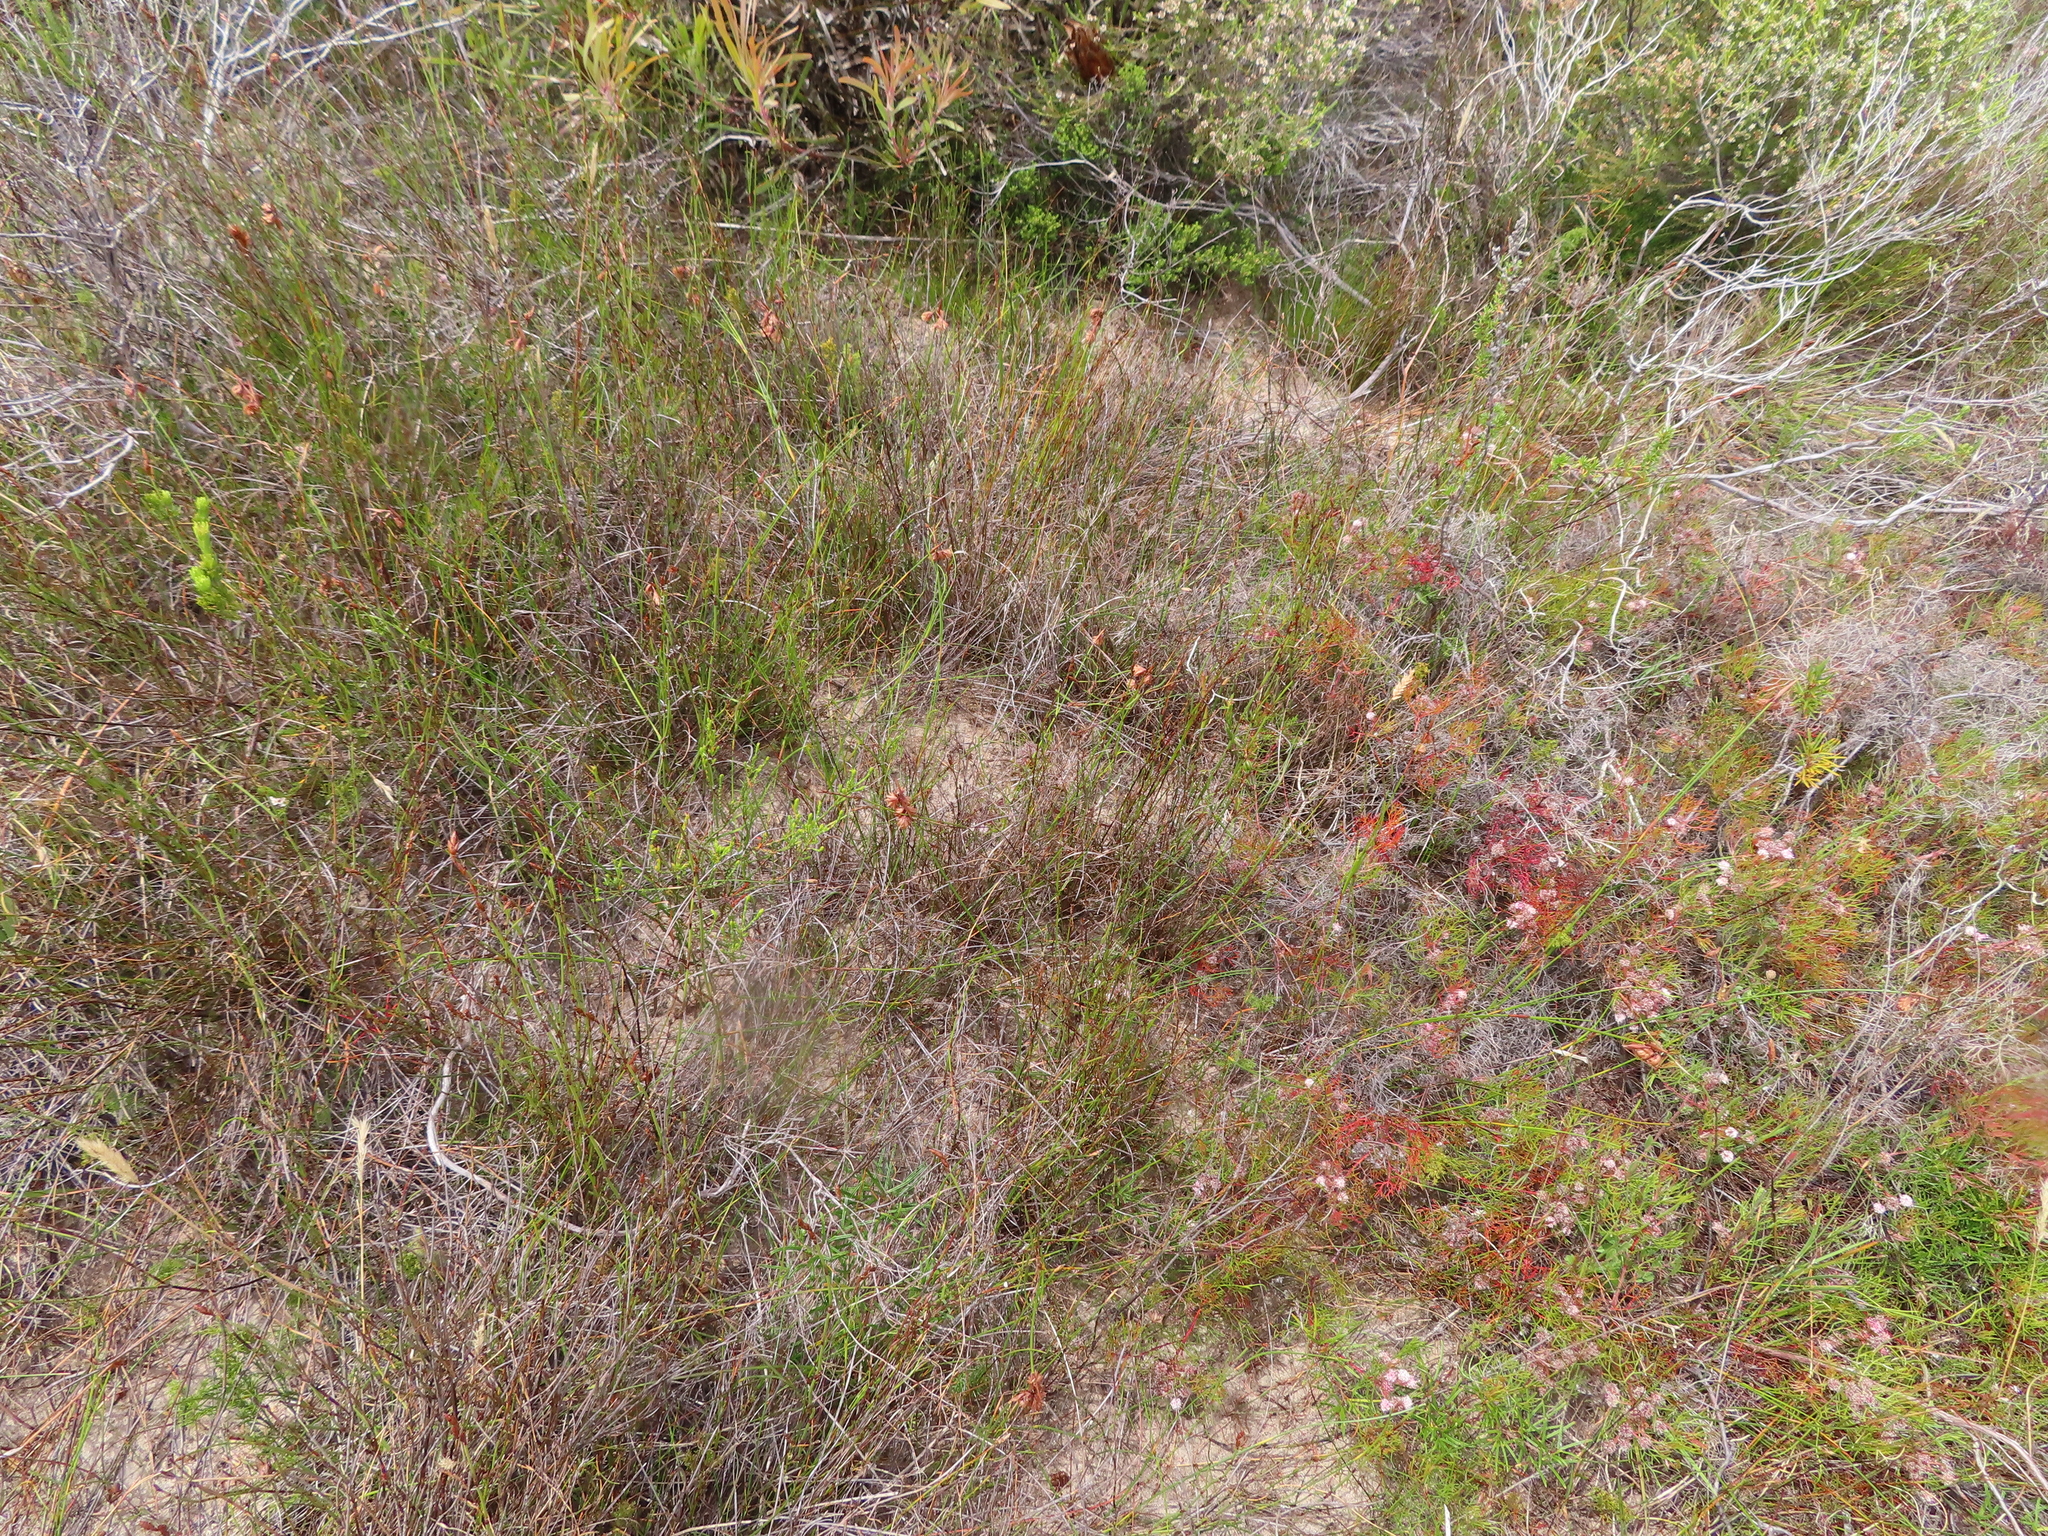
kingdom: Plantae
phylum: Tracheophyta
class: Magnoliopsida
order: Proteales
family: Proteaceae
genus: Serruria
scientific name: Serruria fasciflora
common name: Common pin spiderhead
